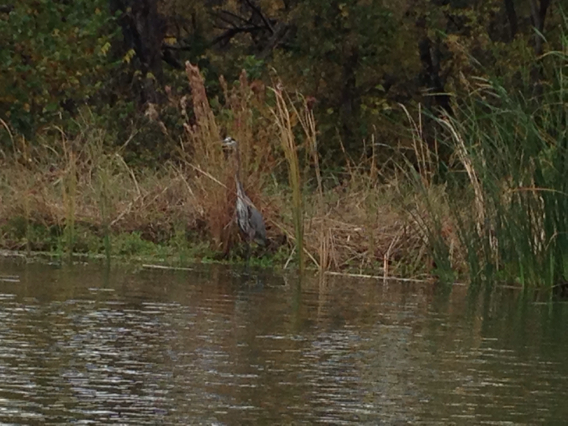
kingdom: Animalia
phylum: Chordata
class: Aves
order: Pelecaniformes
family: Ardeidae
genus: Ardea
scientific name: Ardea herodias
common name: Great blue heron
